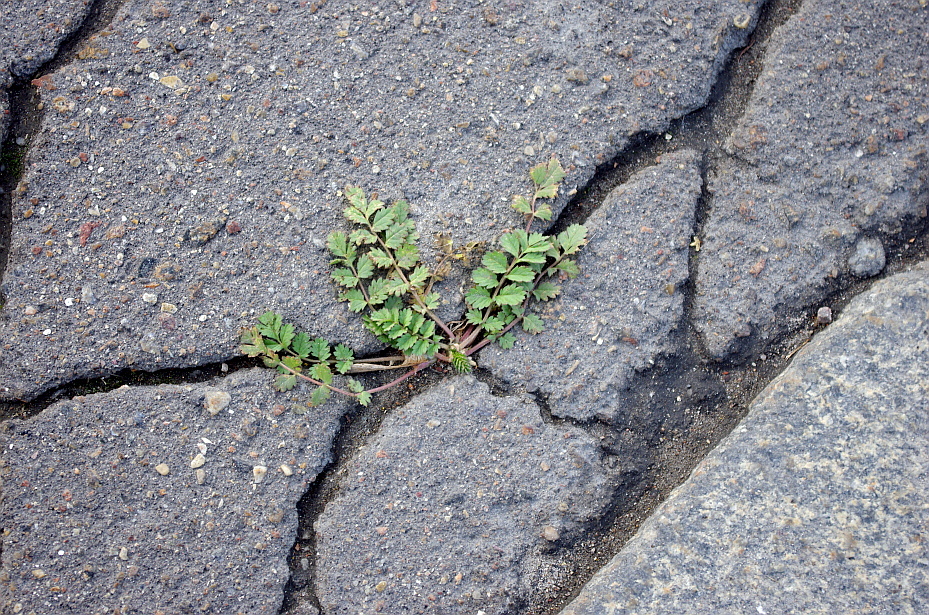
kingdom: Plantae
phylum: Tracheophyta
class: Magnoliopsida
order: Rosales
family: Rosaceae
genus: Potentilla
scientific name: Potentilla supina
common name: Prostrate cinquefoil
